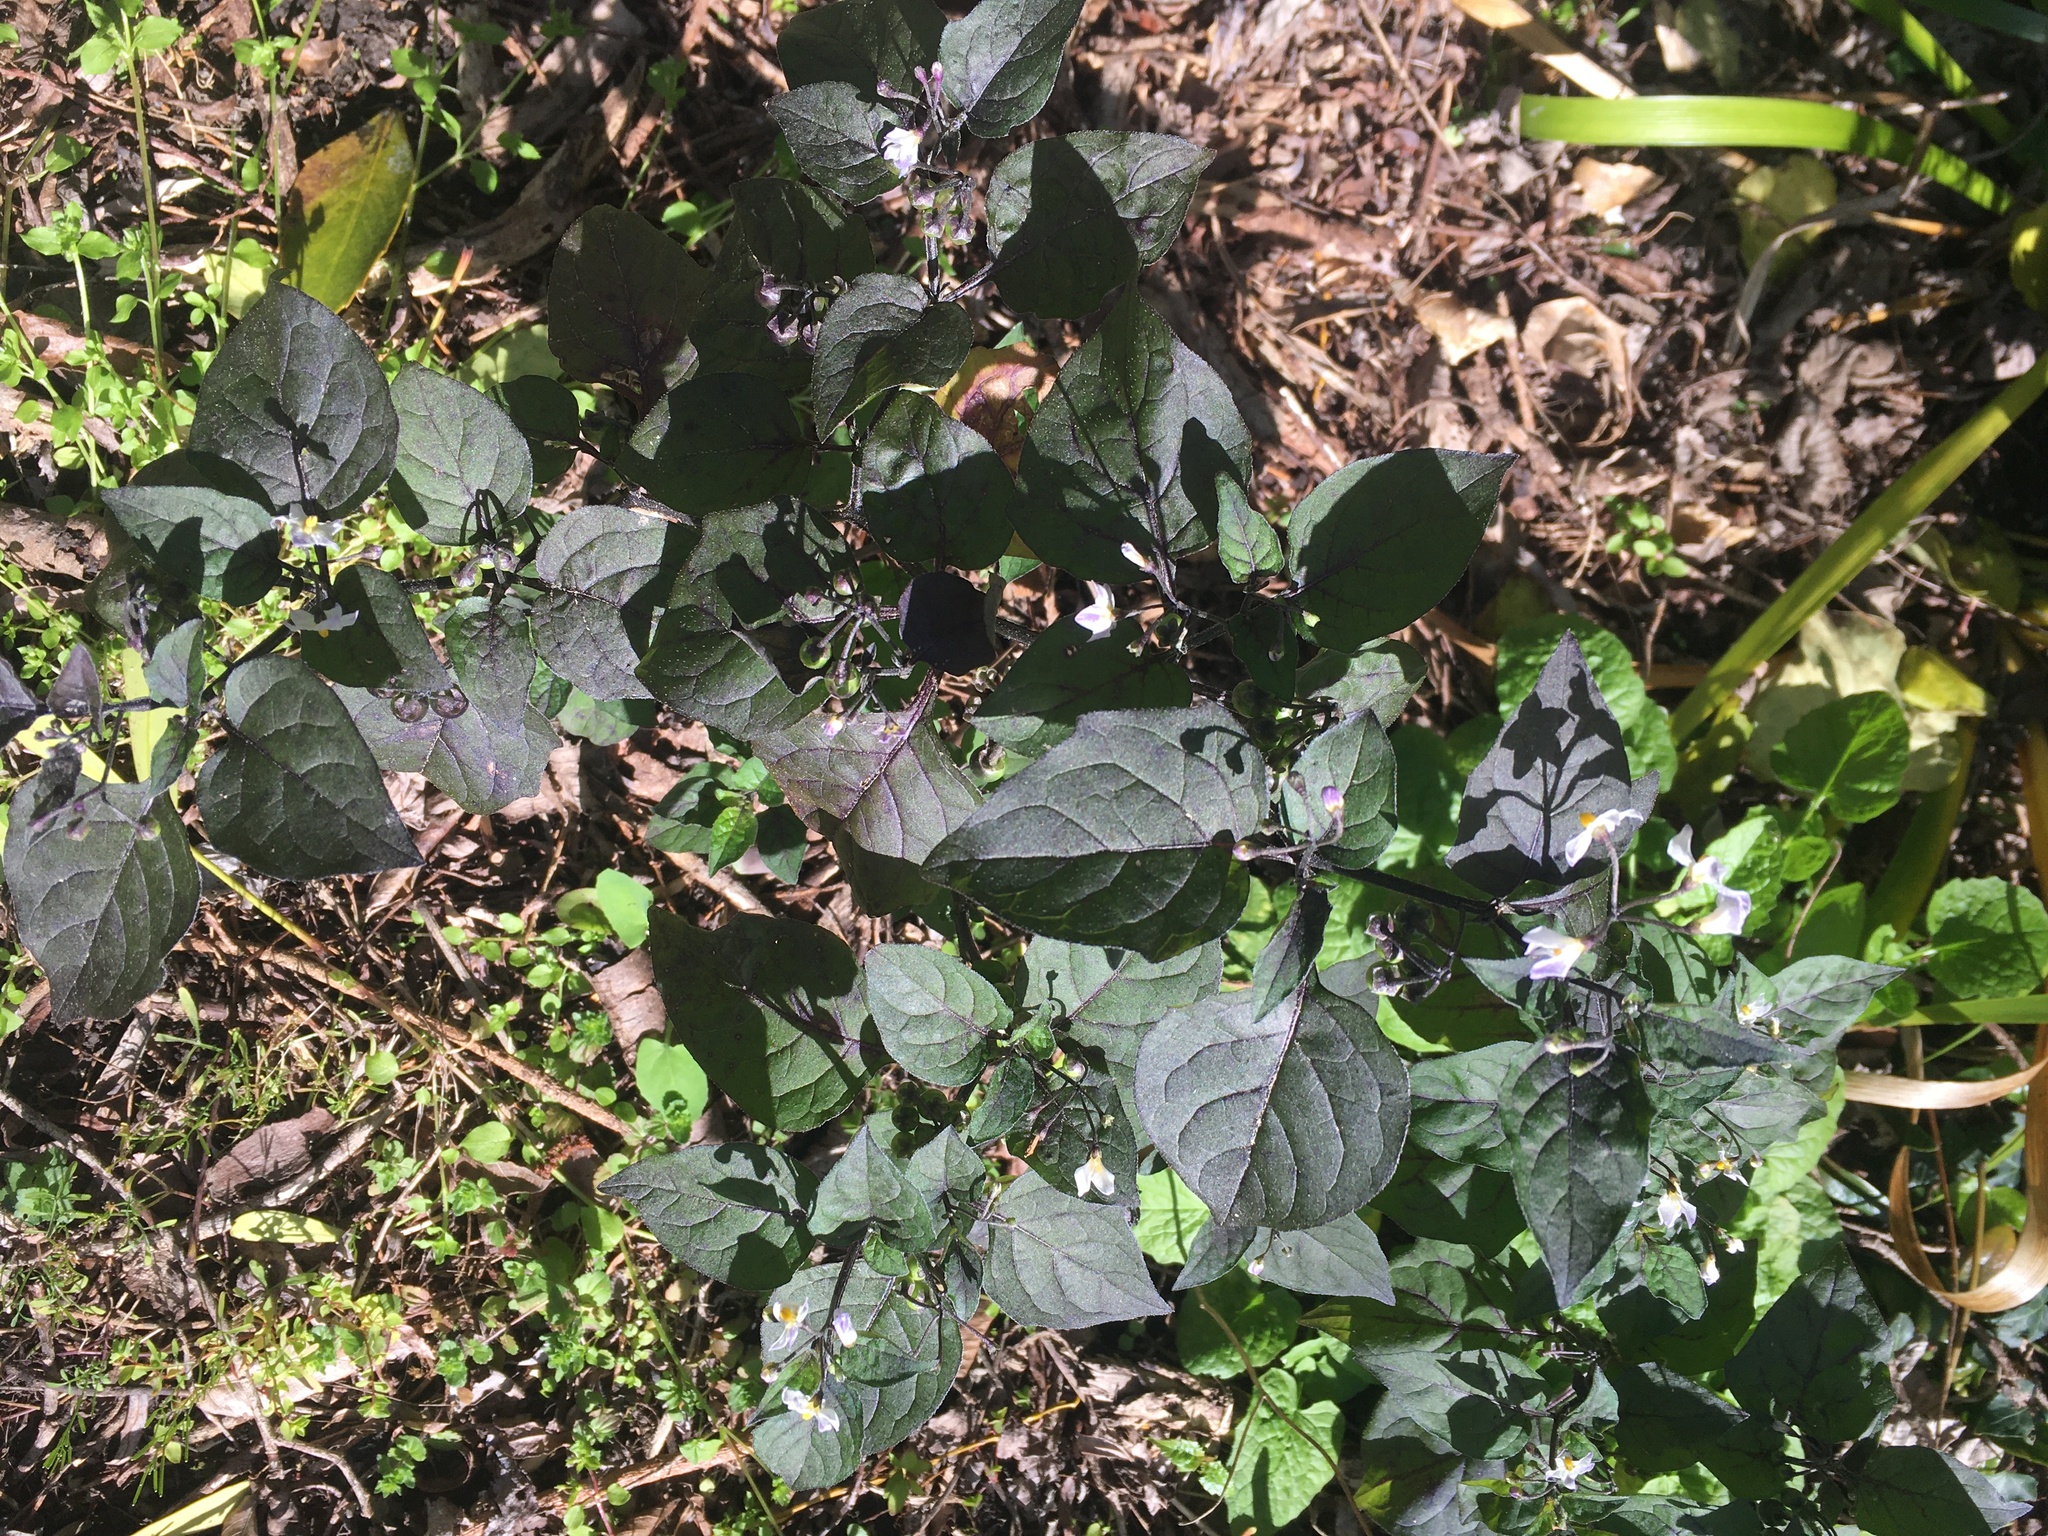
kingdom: Plantae
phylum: Tracheophyta
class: Magnoliopsida
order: Solanales
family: Solanaceae
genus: Solanum
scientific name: Solanum nigrum
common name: Black nightshade
